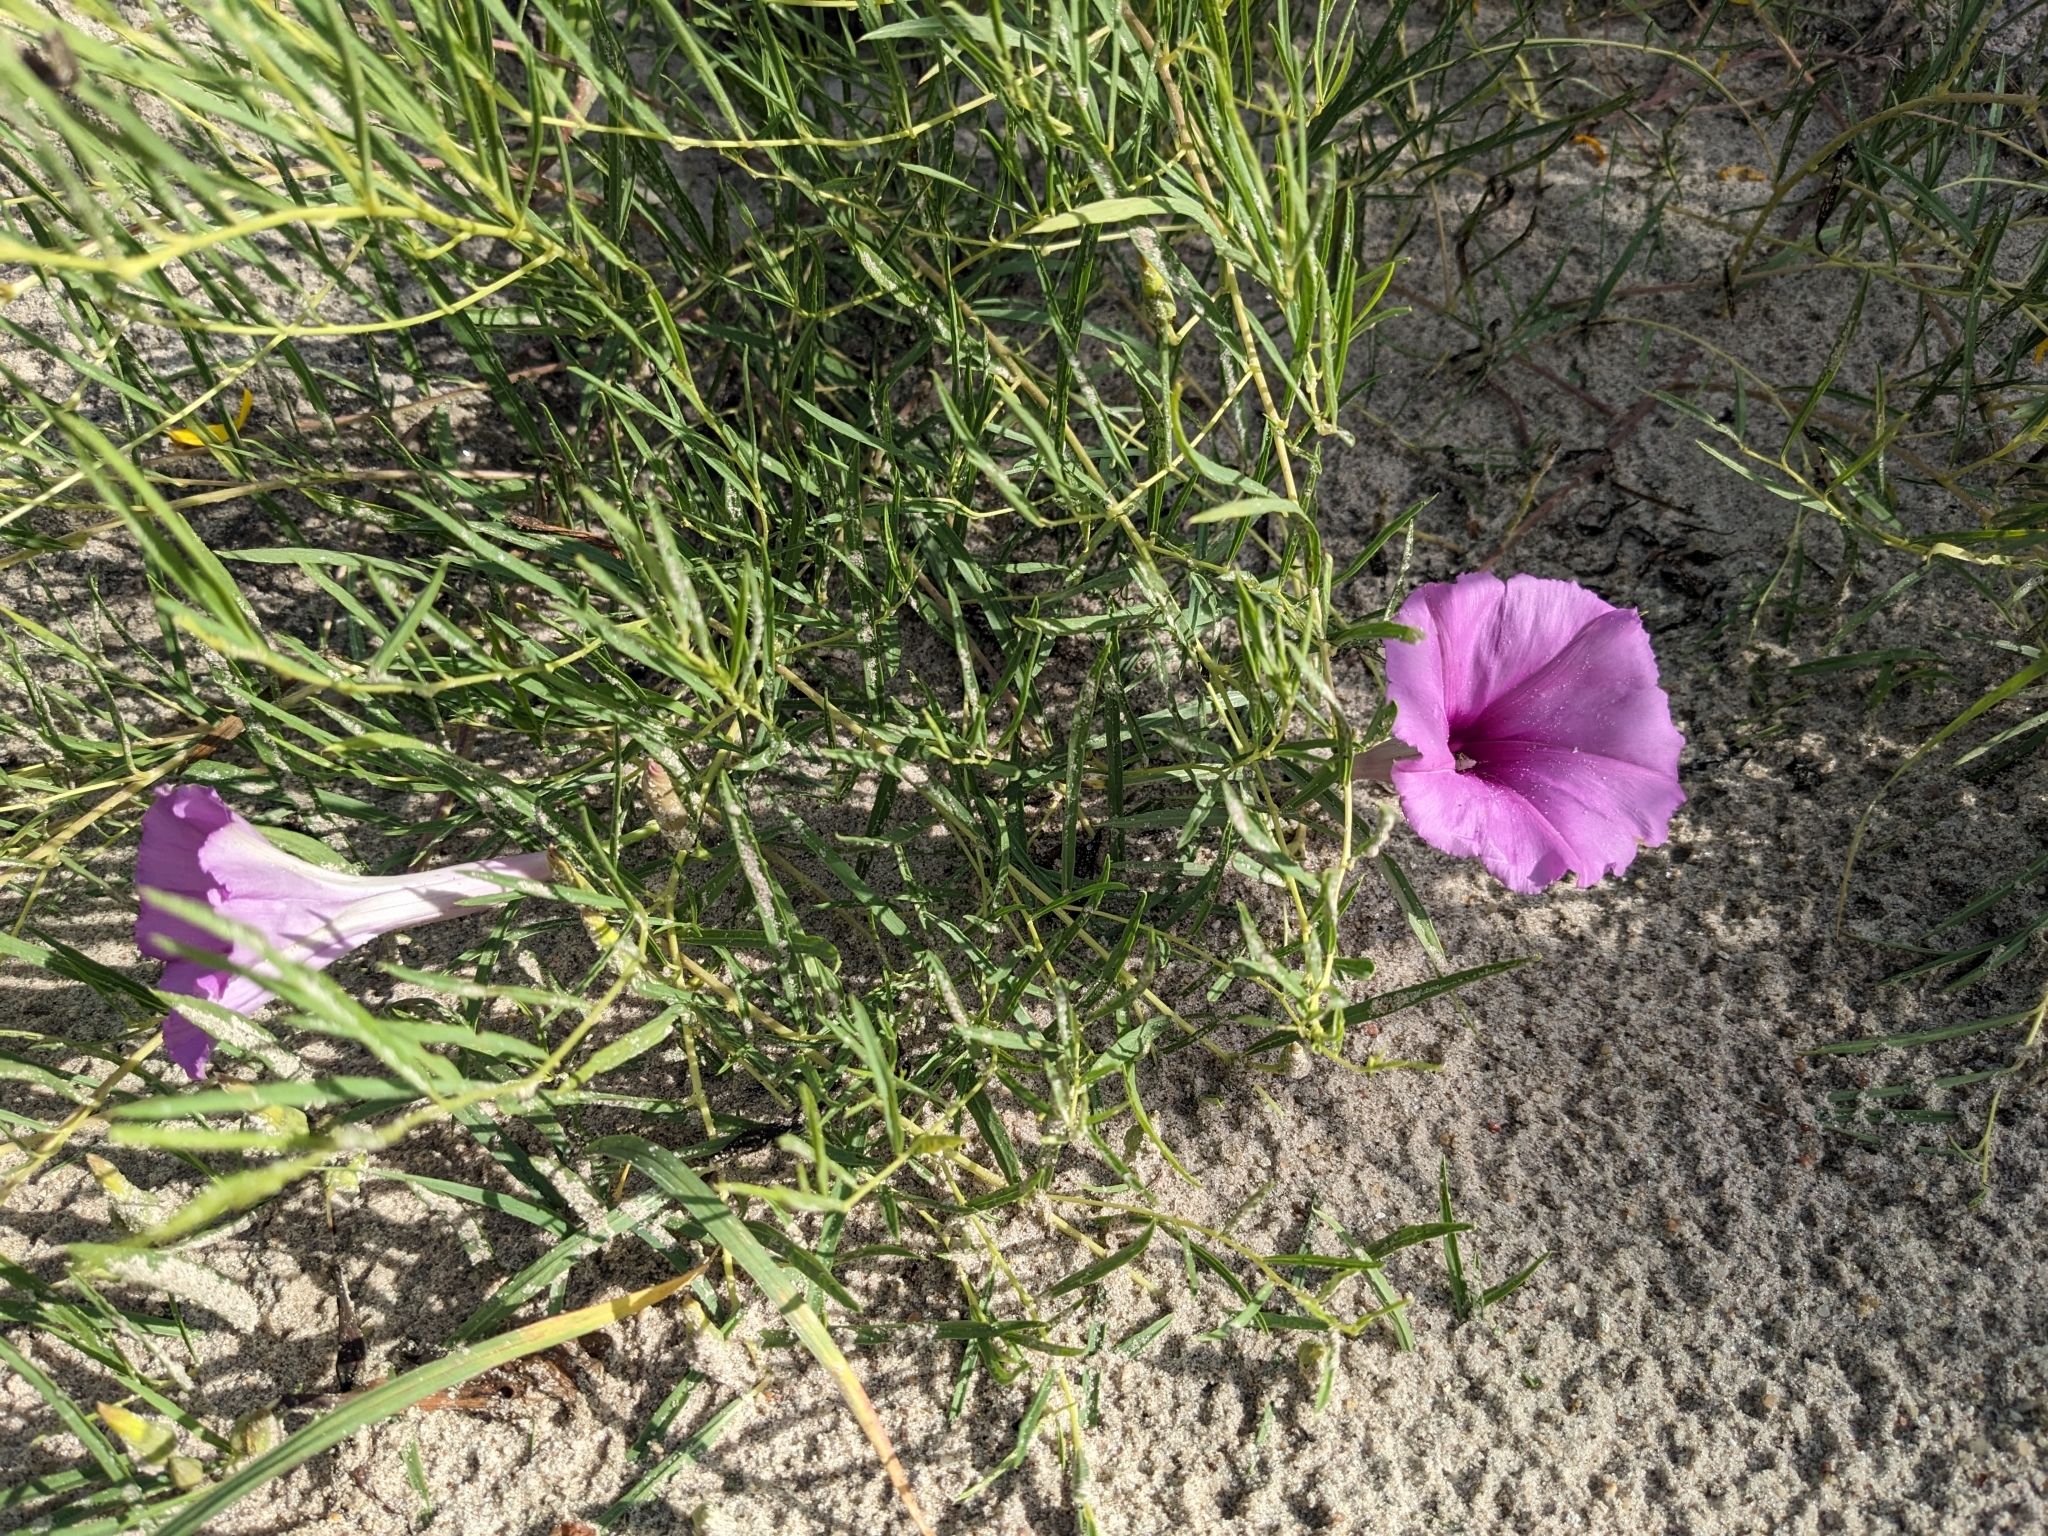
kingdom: Plantae
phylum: Tracheophyta
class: Magnoliopsida
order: Solanales
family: Convolvulaceae
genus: Ipomoea
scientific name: Ipomoea leptophylla
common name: Bush moonflower
